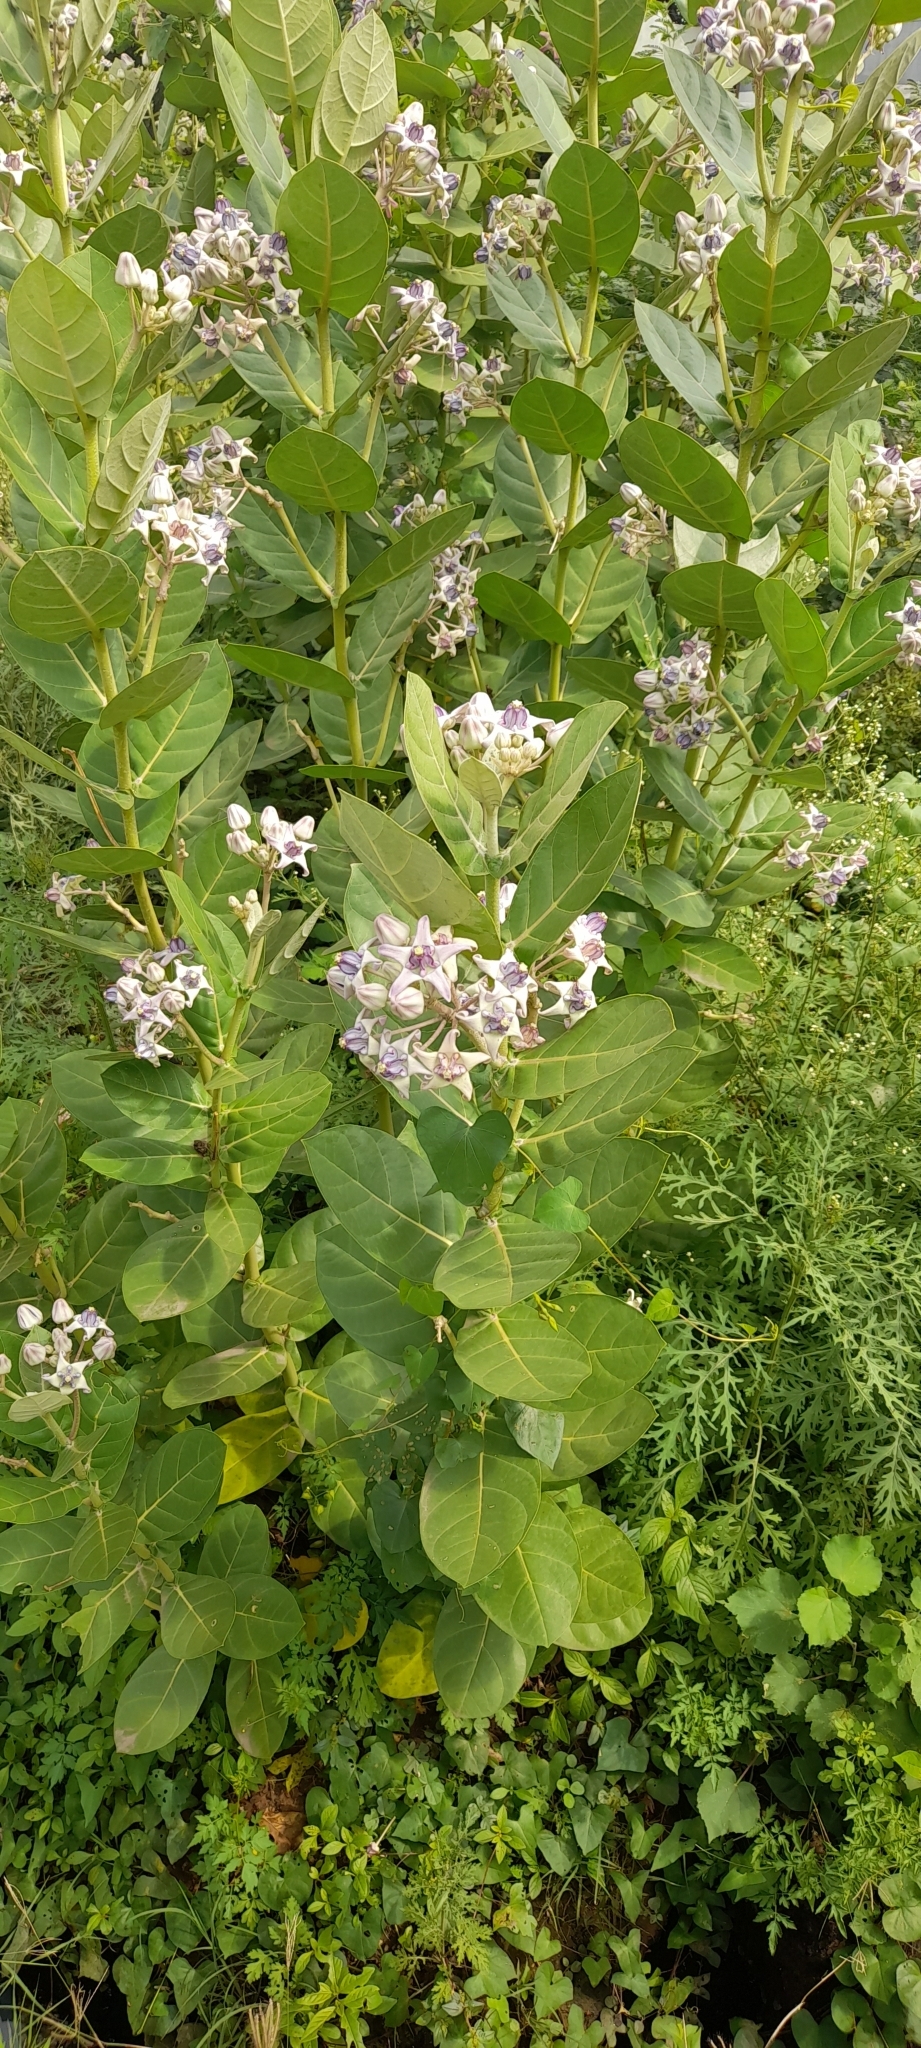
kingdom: Plantae
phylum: Tracheophyta
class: Magnoliopsida
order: Gentianales
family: Apocynaceae
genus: Calotropis
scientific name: Calotropis gigantea
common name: Crown flower
